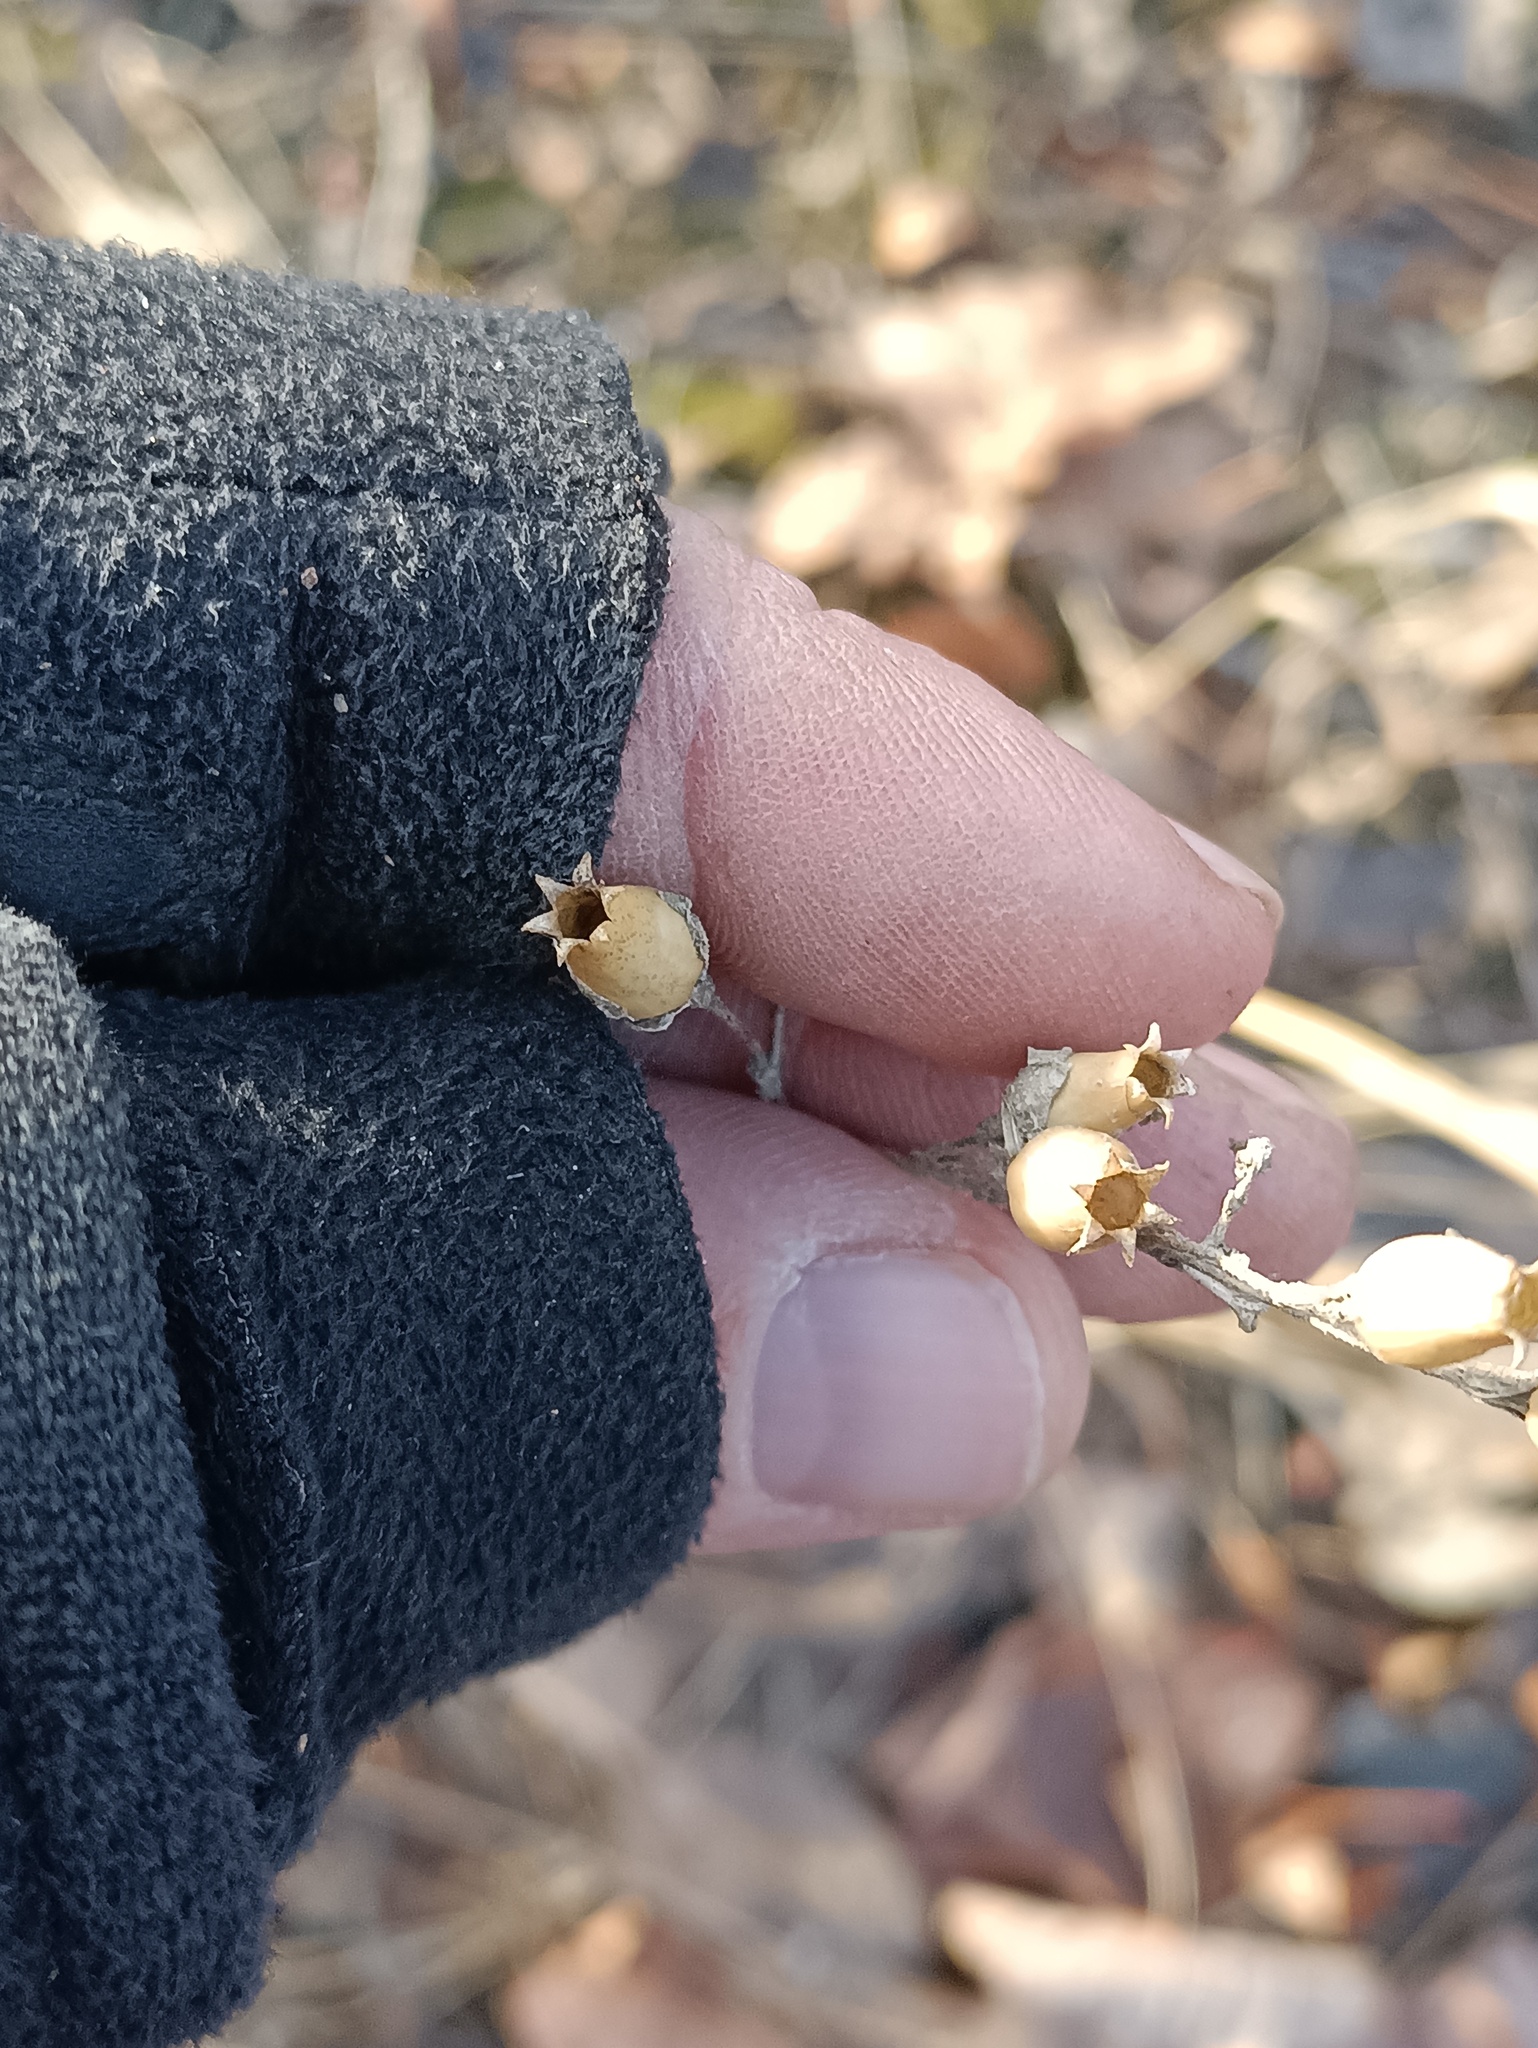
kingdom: Plantae
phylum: Tracheophyta
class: Magnoliopsida
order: Caryophyllales
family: Caryophyllaceae
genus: Silene
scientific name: Silene nutans
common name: Nottingham catchfly
